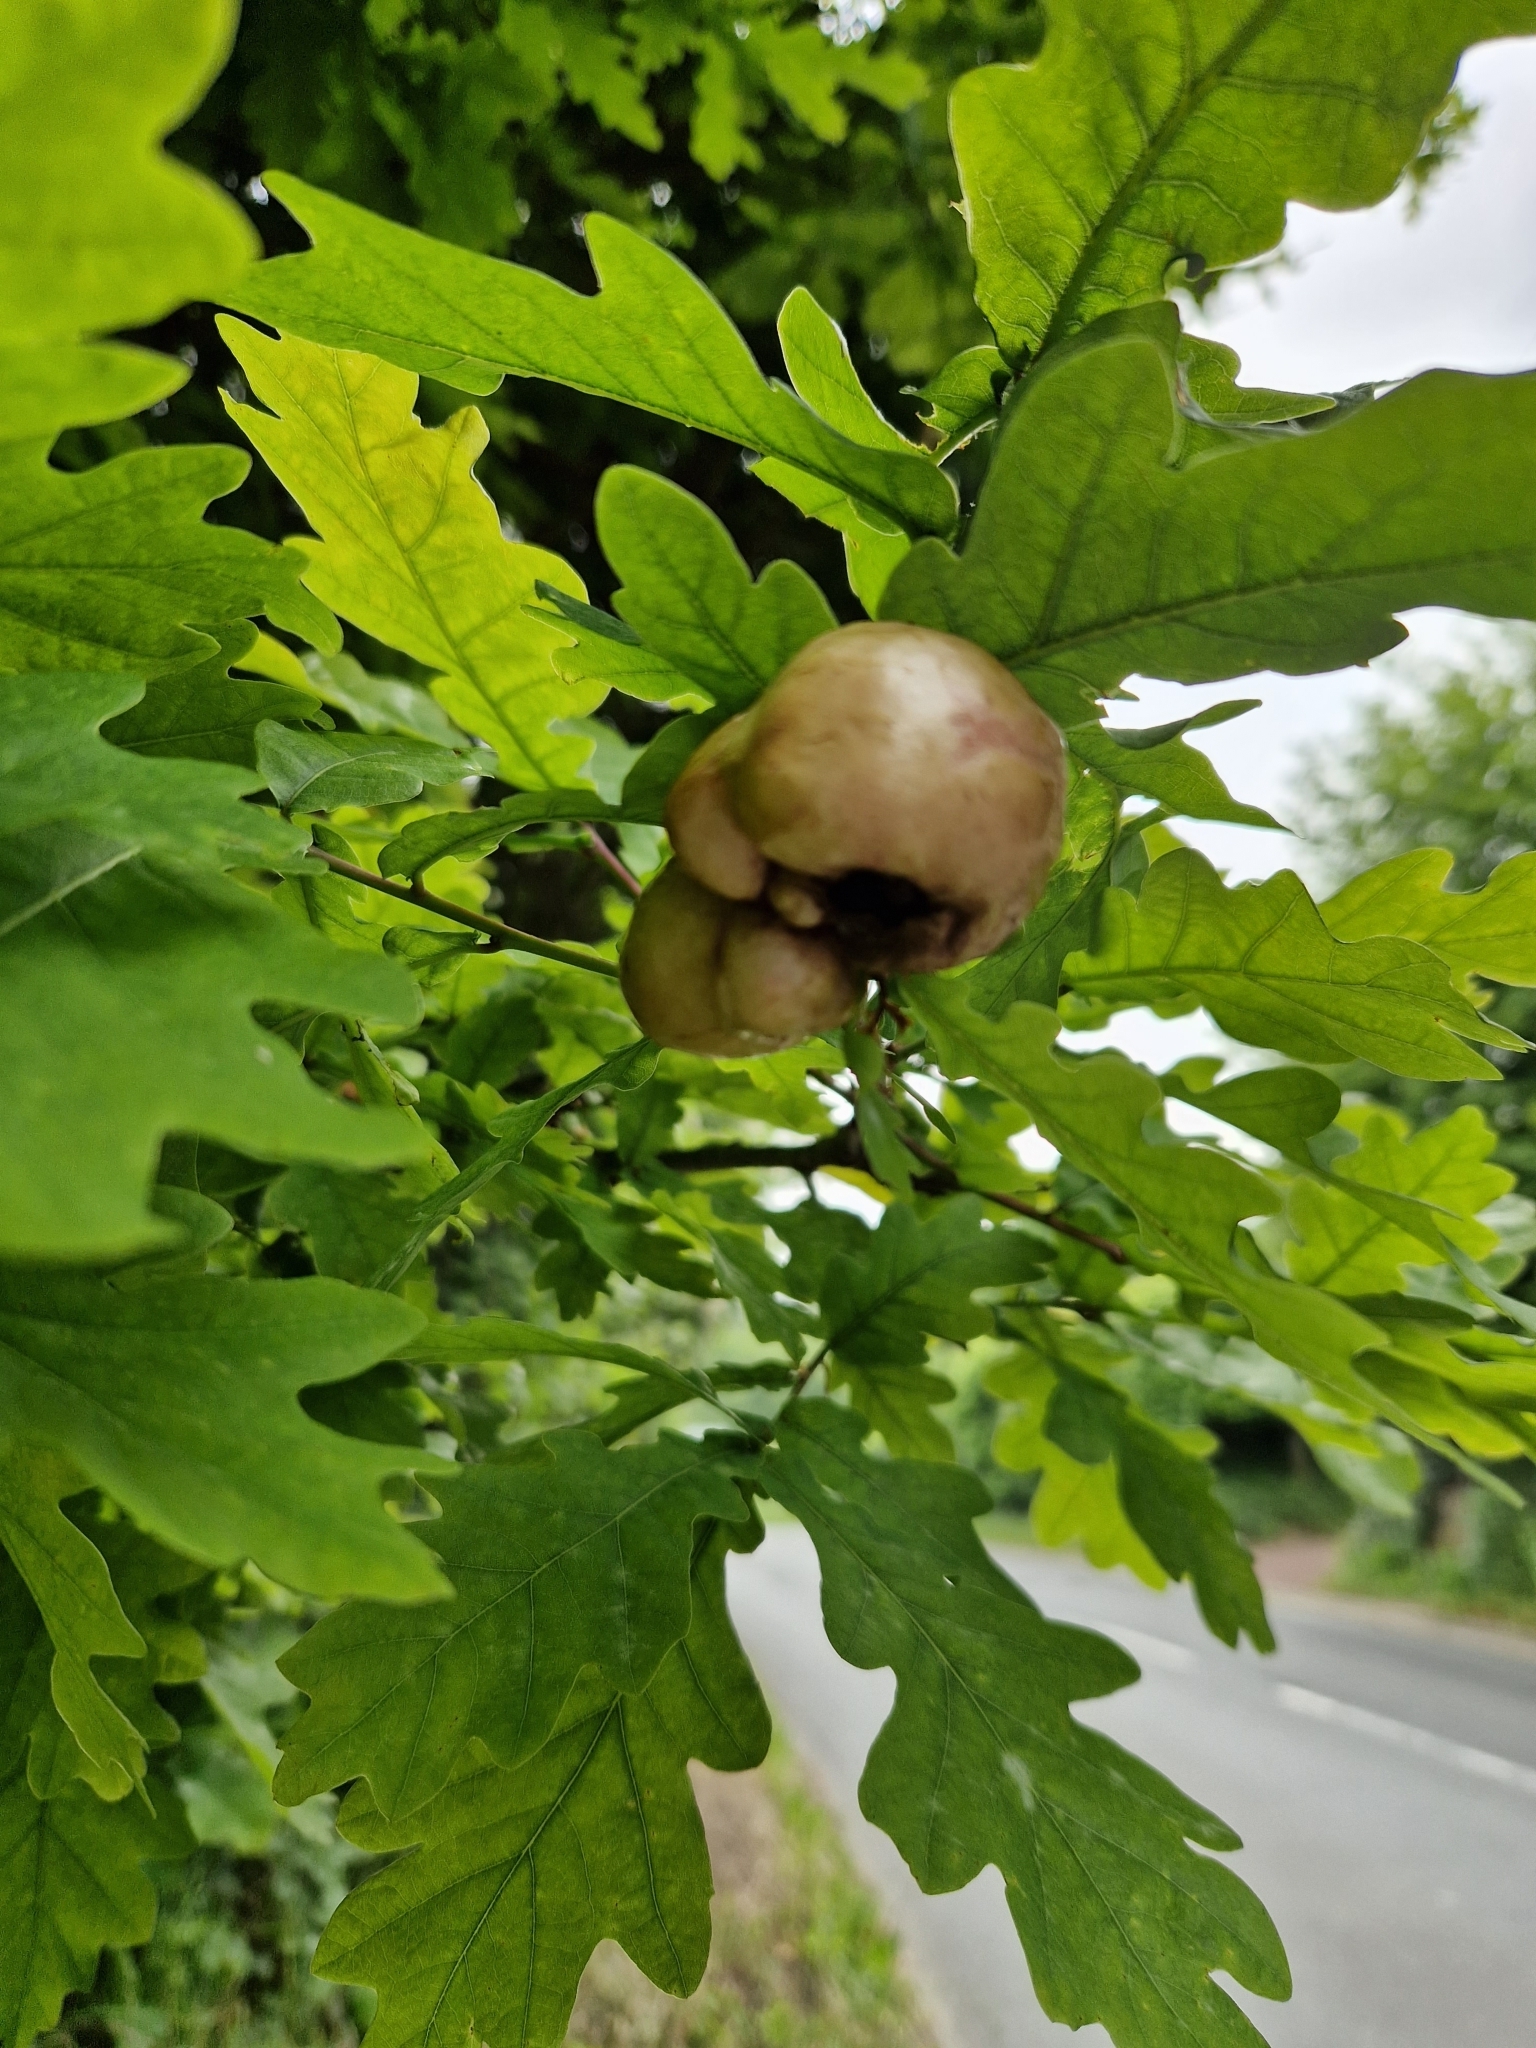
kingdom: Animalia
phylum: Arthropoda
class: Insecta
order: Hymenoptera
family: Cynipidae
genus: Biorhiza
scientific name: Biorhiza pallida
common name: Oak apple
